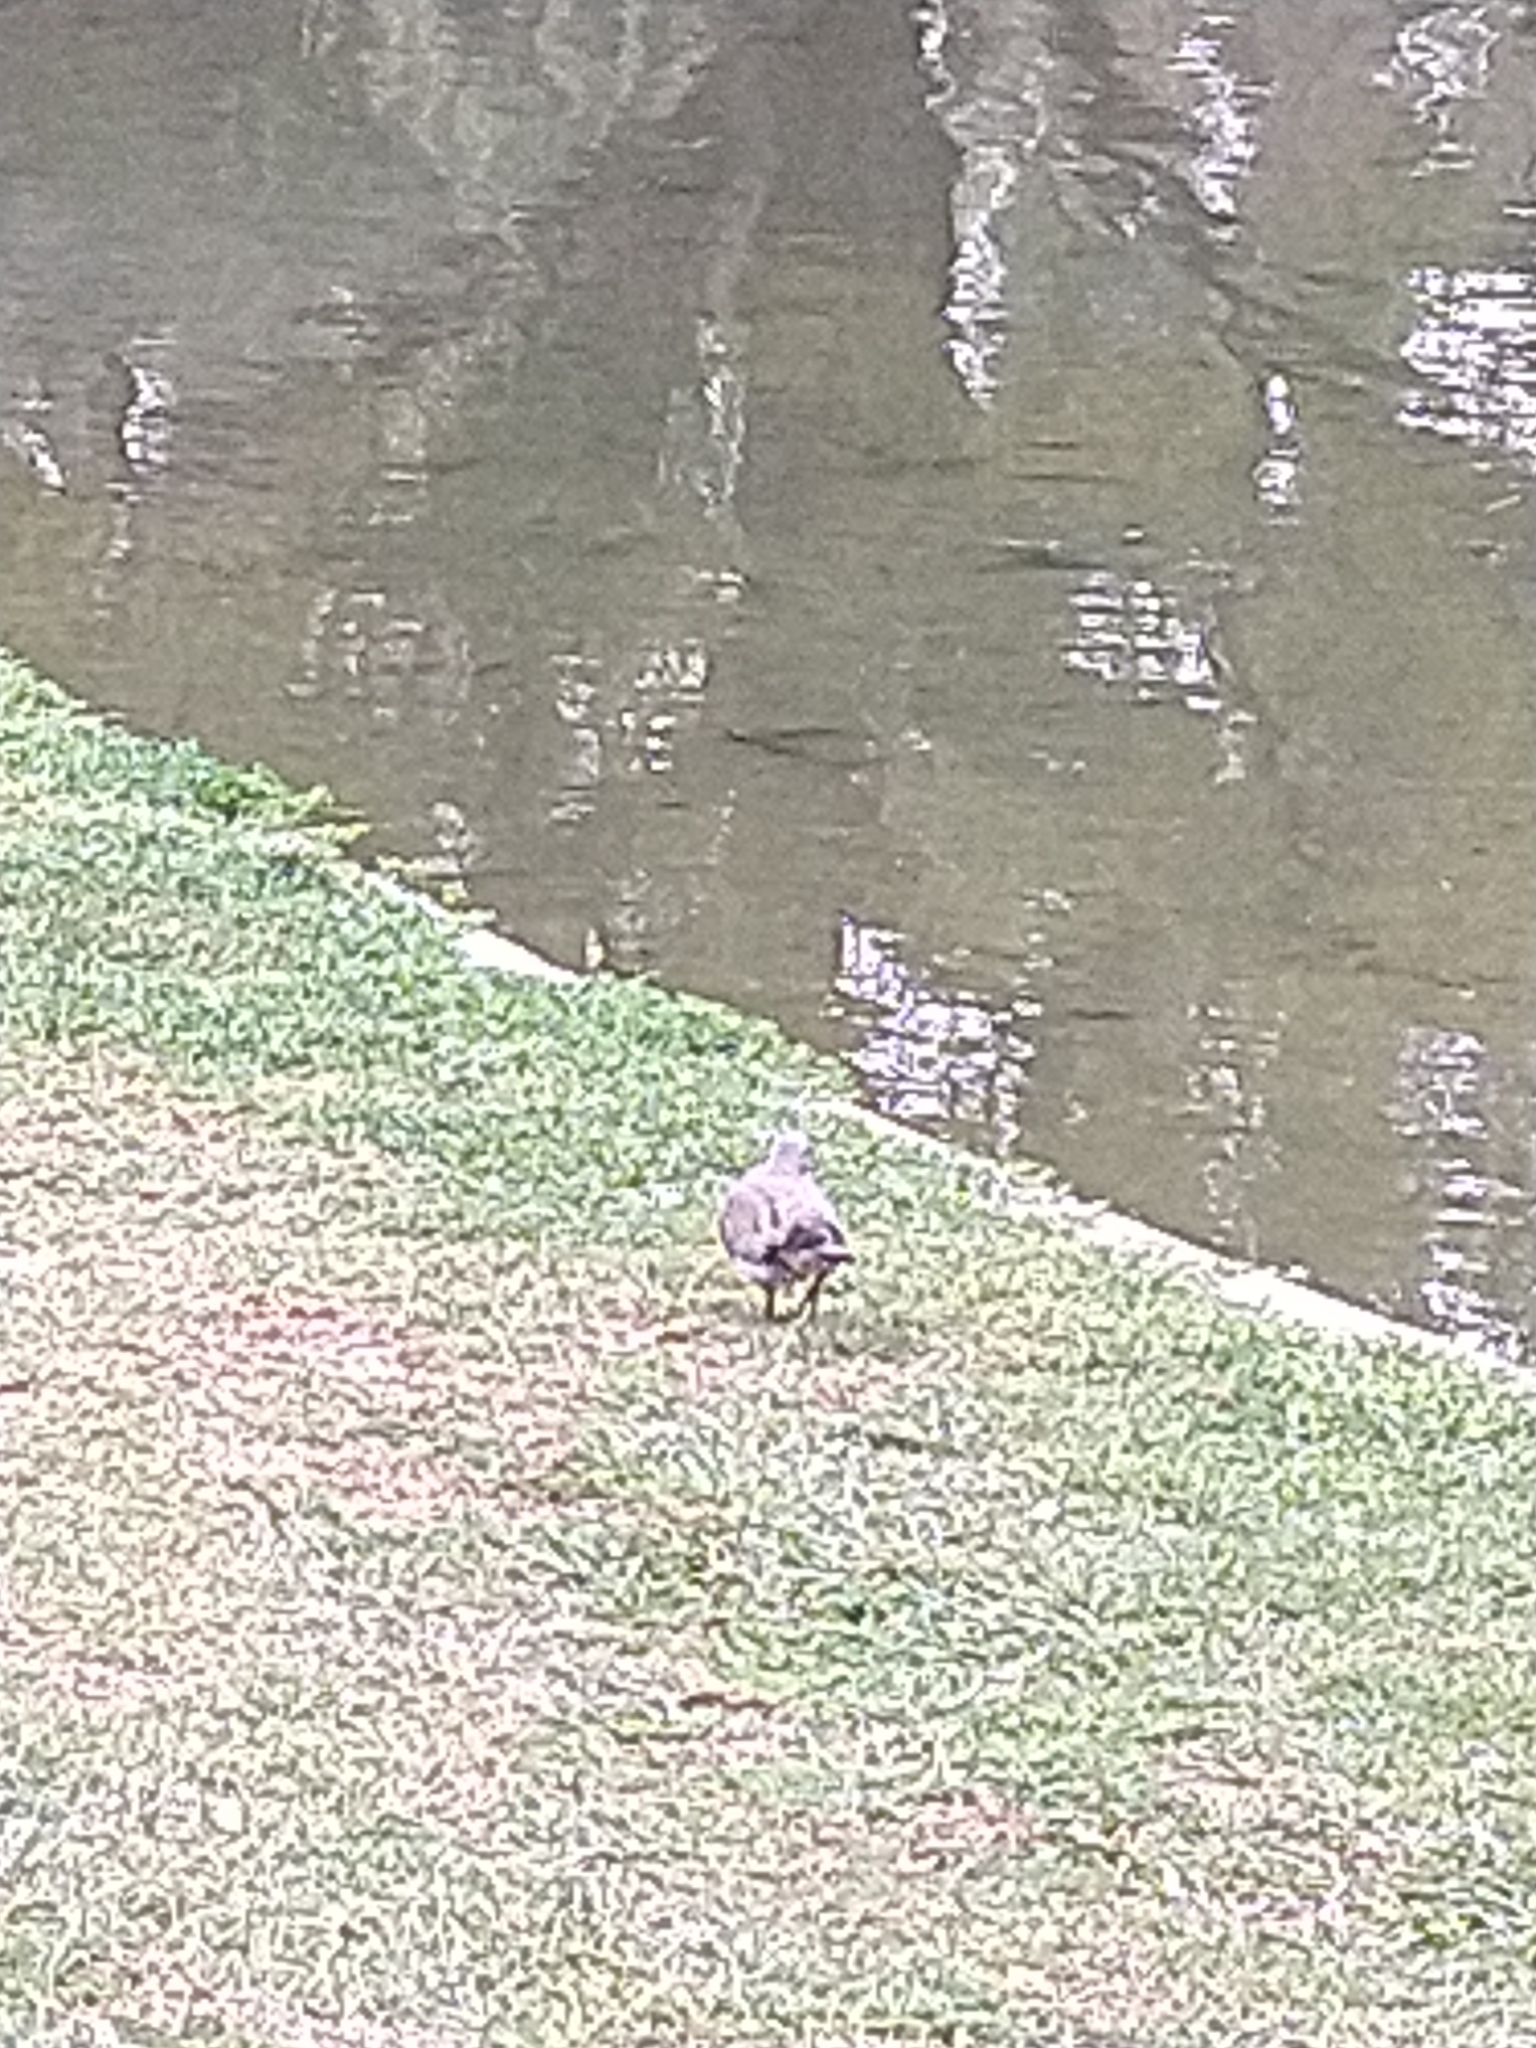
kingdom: Animalia
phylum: Chordata
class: Aves
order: Columbiformes
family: Columbidae
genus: Zenaida
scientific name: Zenaida auriculata
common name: Eared dove
